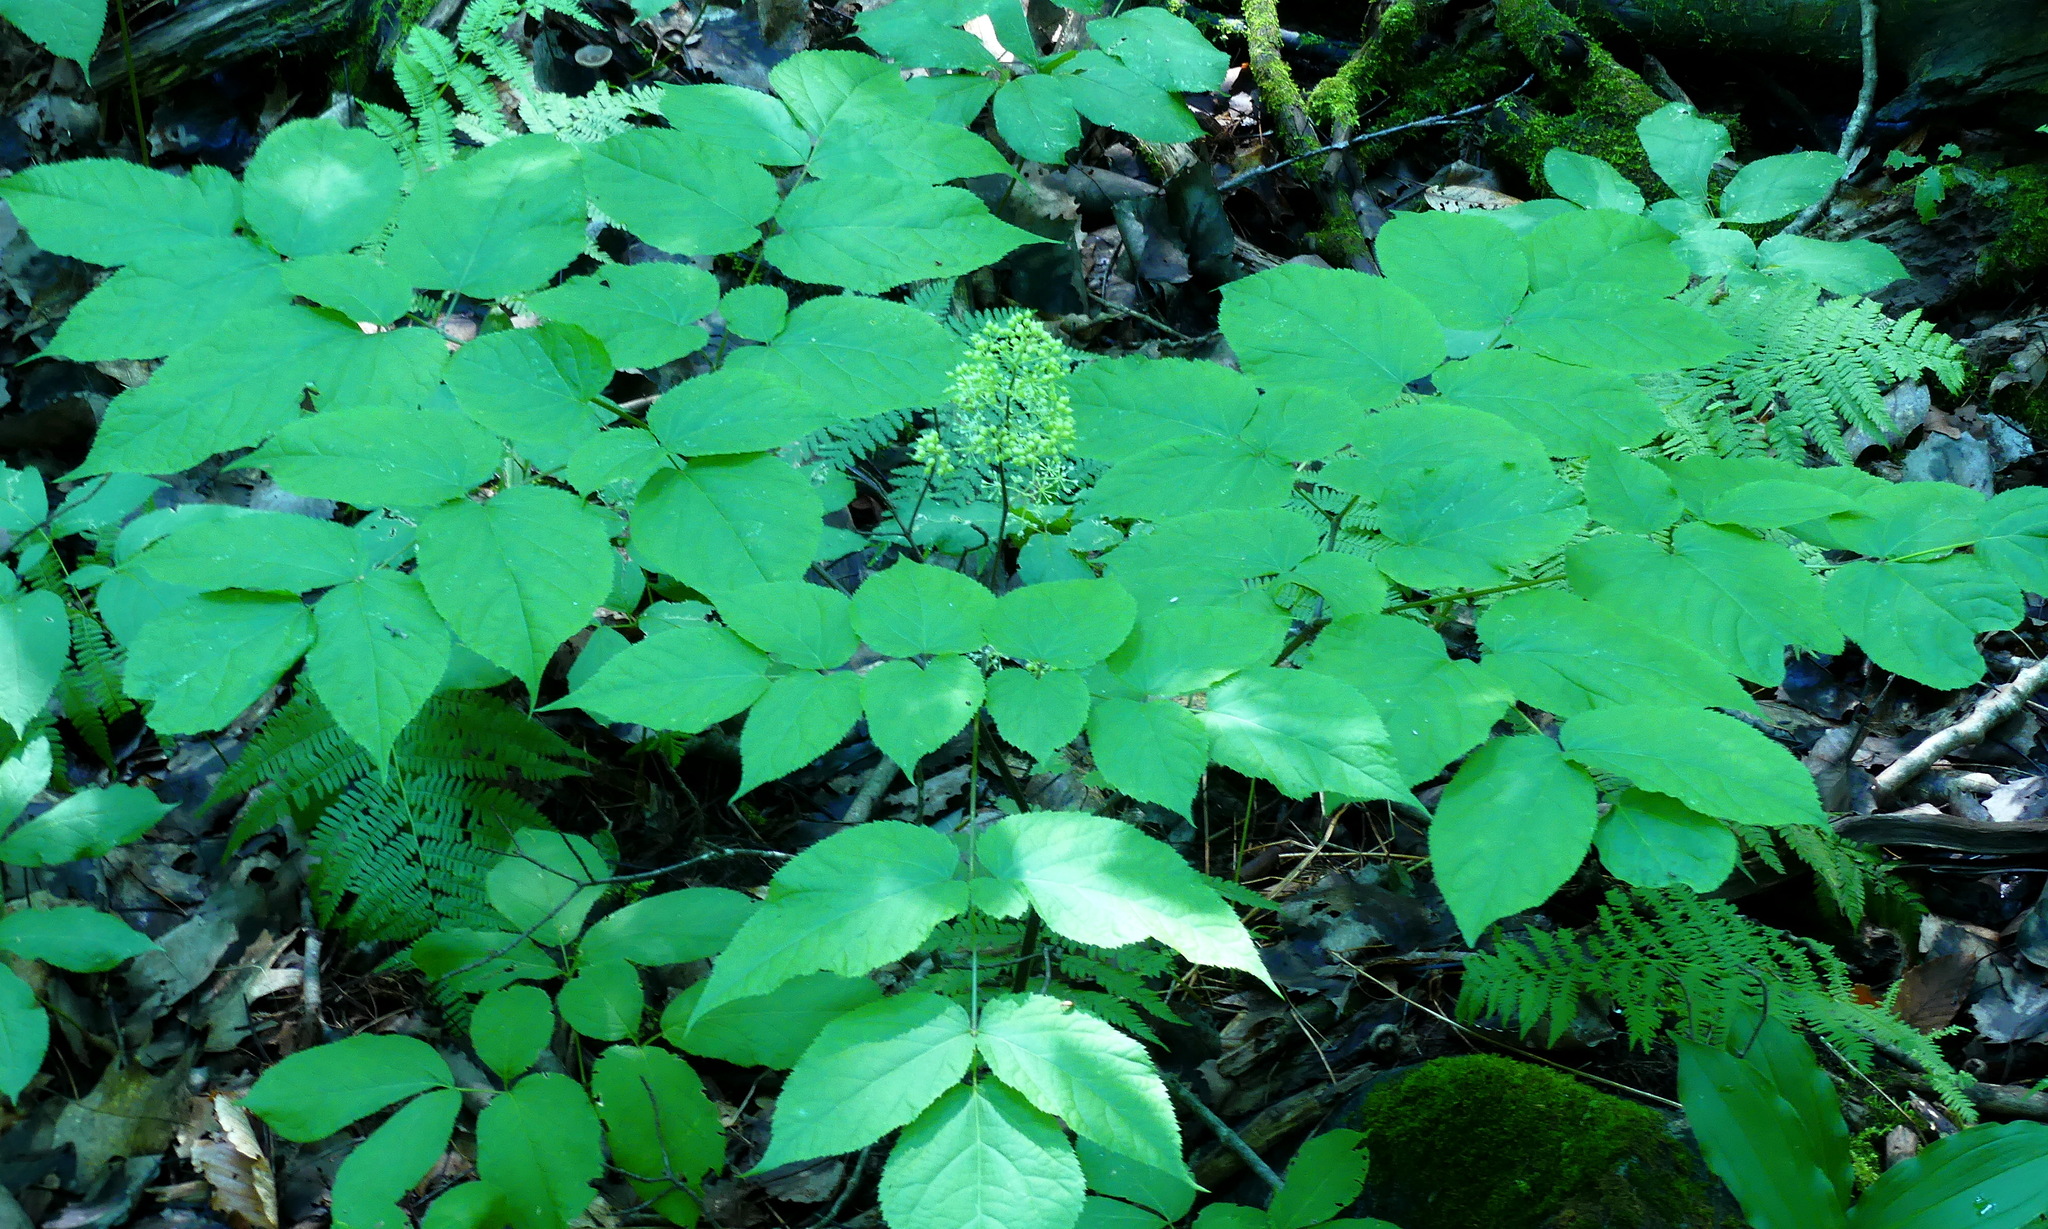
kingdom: Plantae
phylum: Tracheophyta
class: Magnoliopsida
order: Apiales
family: Araliaceae
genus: Aralia
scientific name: Aralia racemosa
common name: American-spikenard
